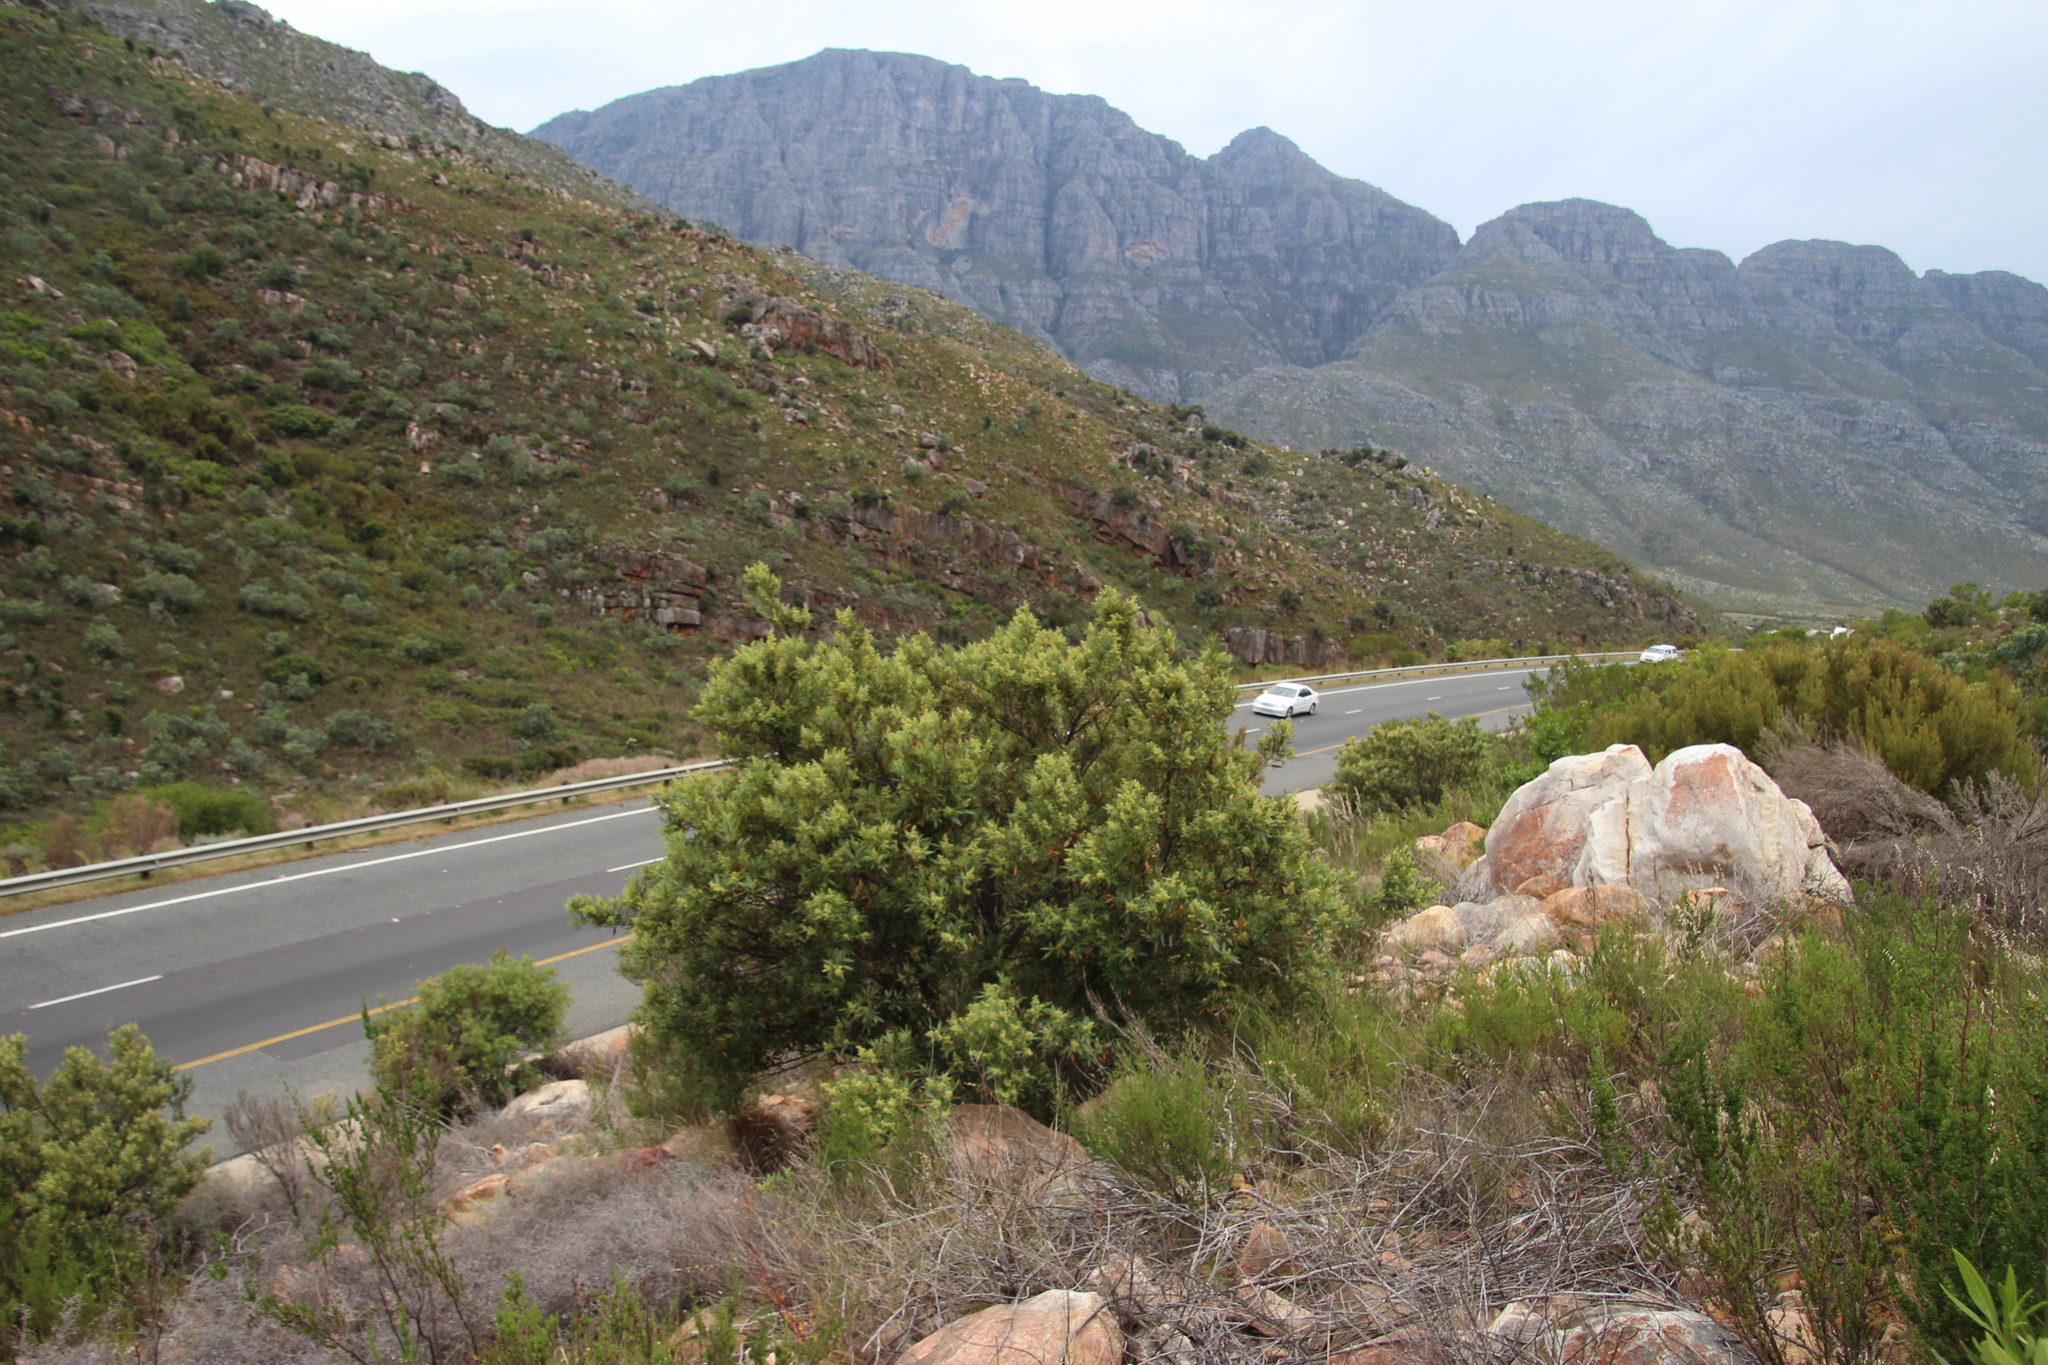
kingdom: Plantae
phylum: Tracheophyta
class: Magnoliopsida
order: Sapindales
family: Anacardiaceae
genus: Searsia
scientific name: Searsia angustifolia
